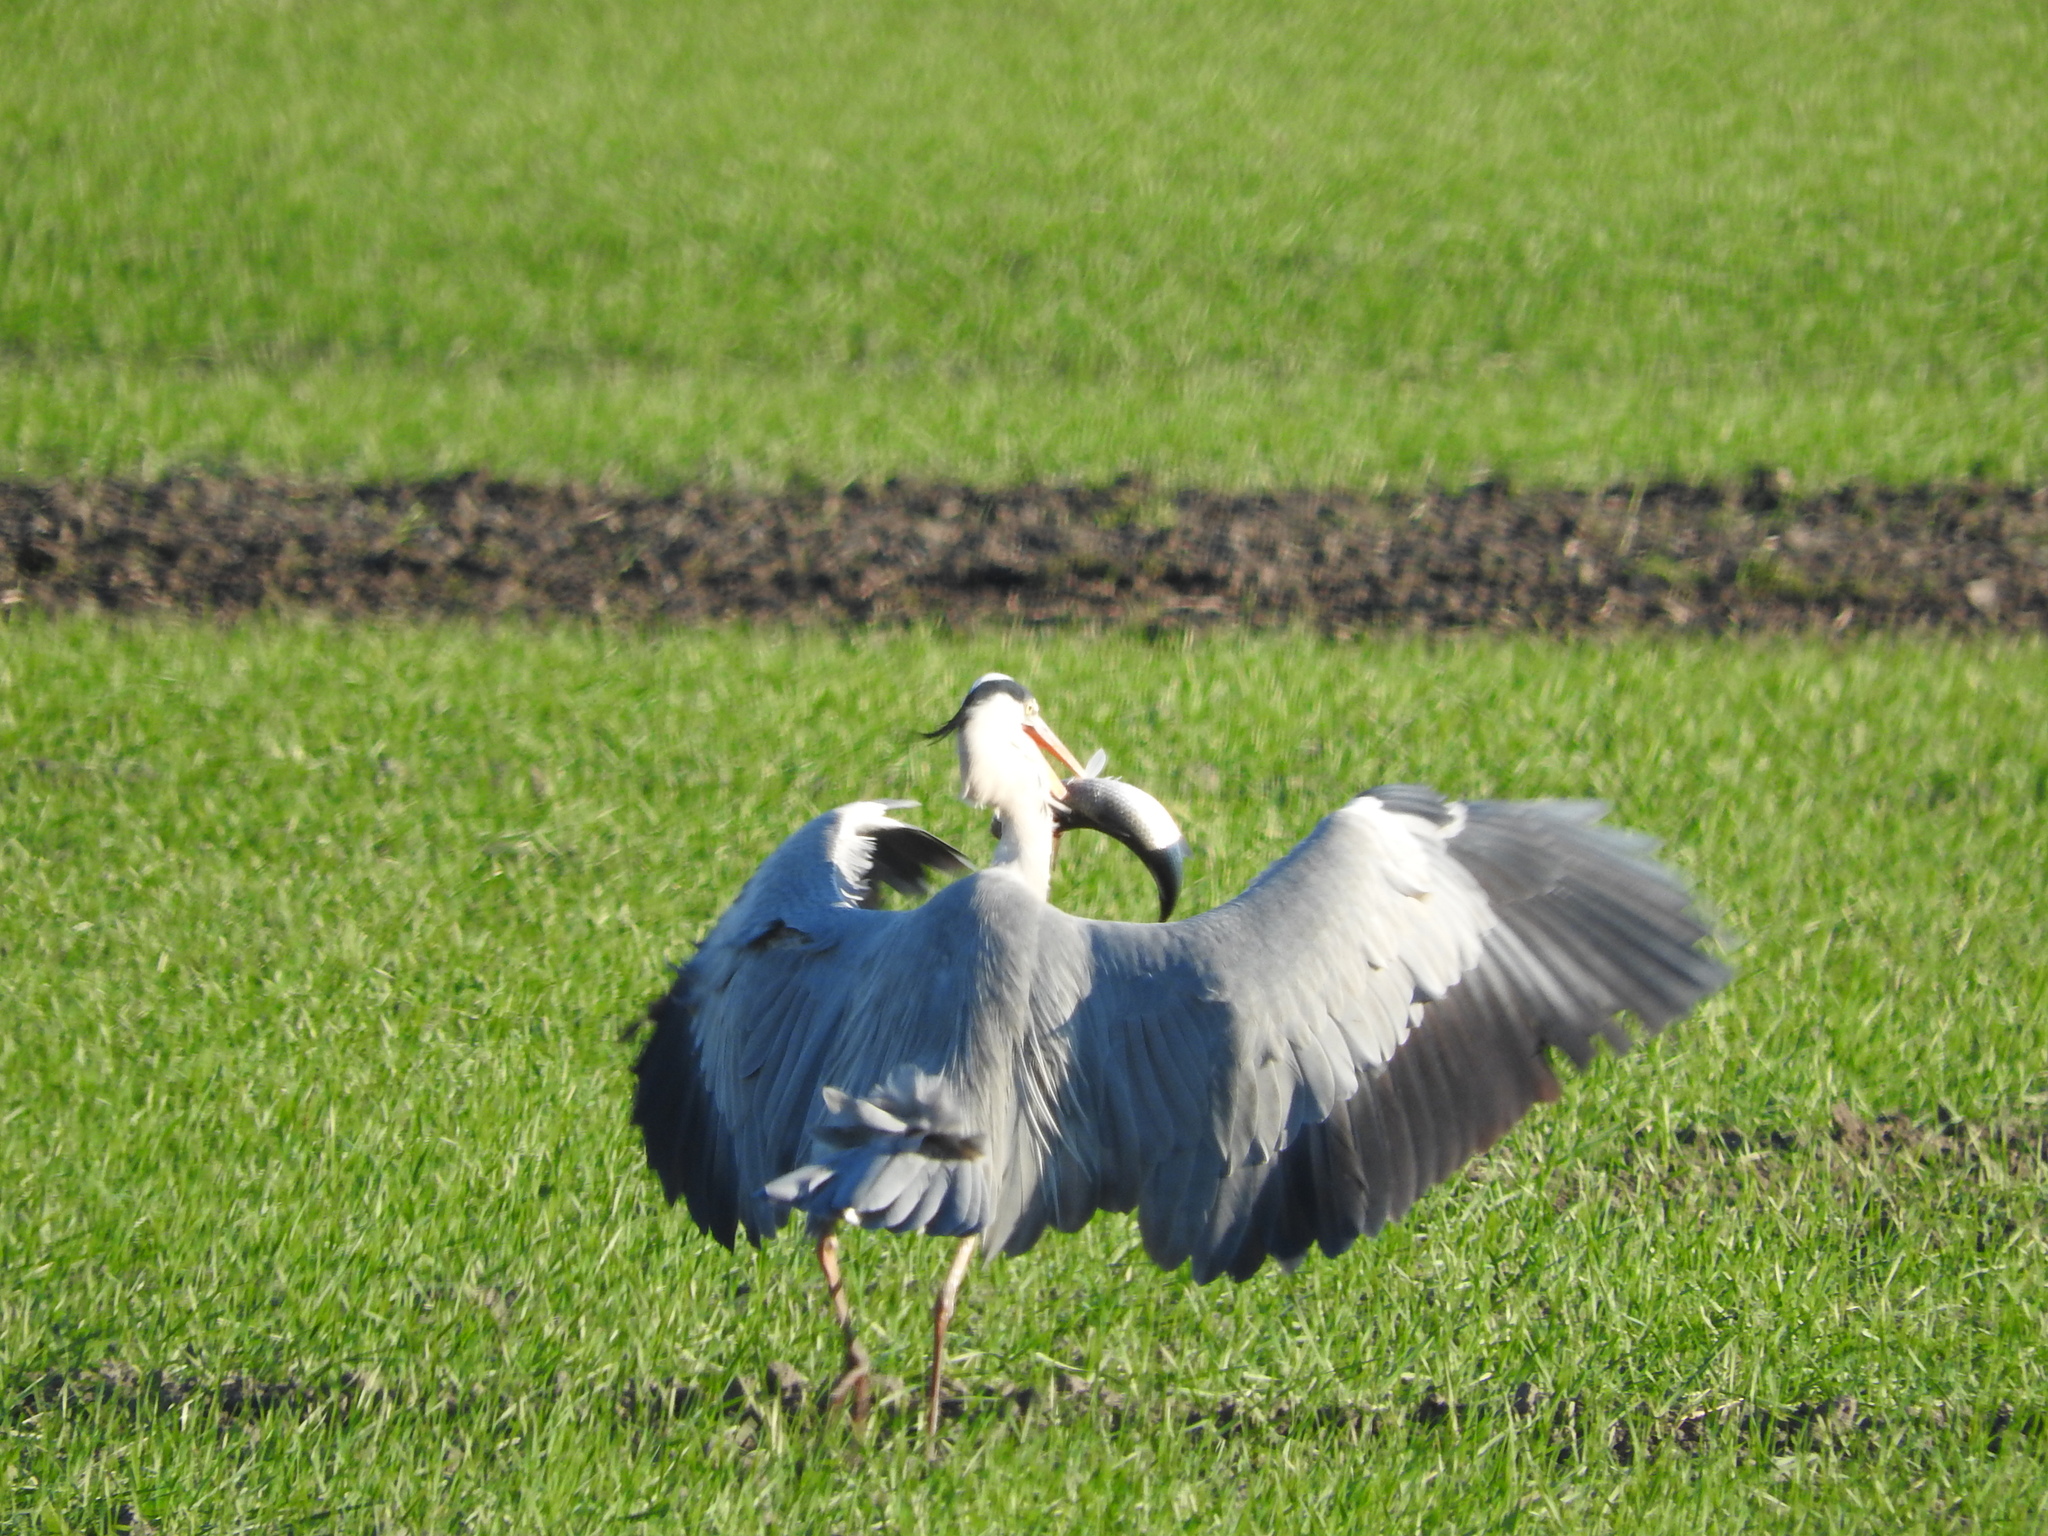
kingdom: Animalia
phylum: Chordata
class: Aves
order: Pelecaniformes
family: Ardeidae
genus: Ardea
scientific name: Ardea cinerea
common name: Grey heron
